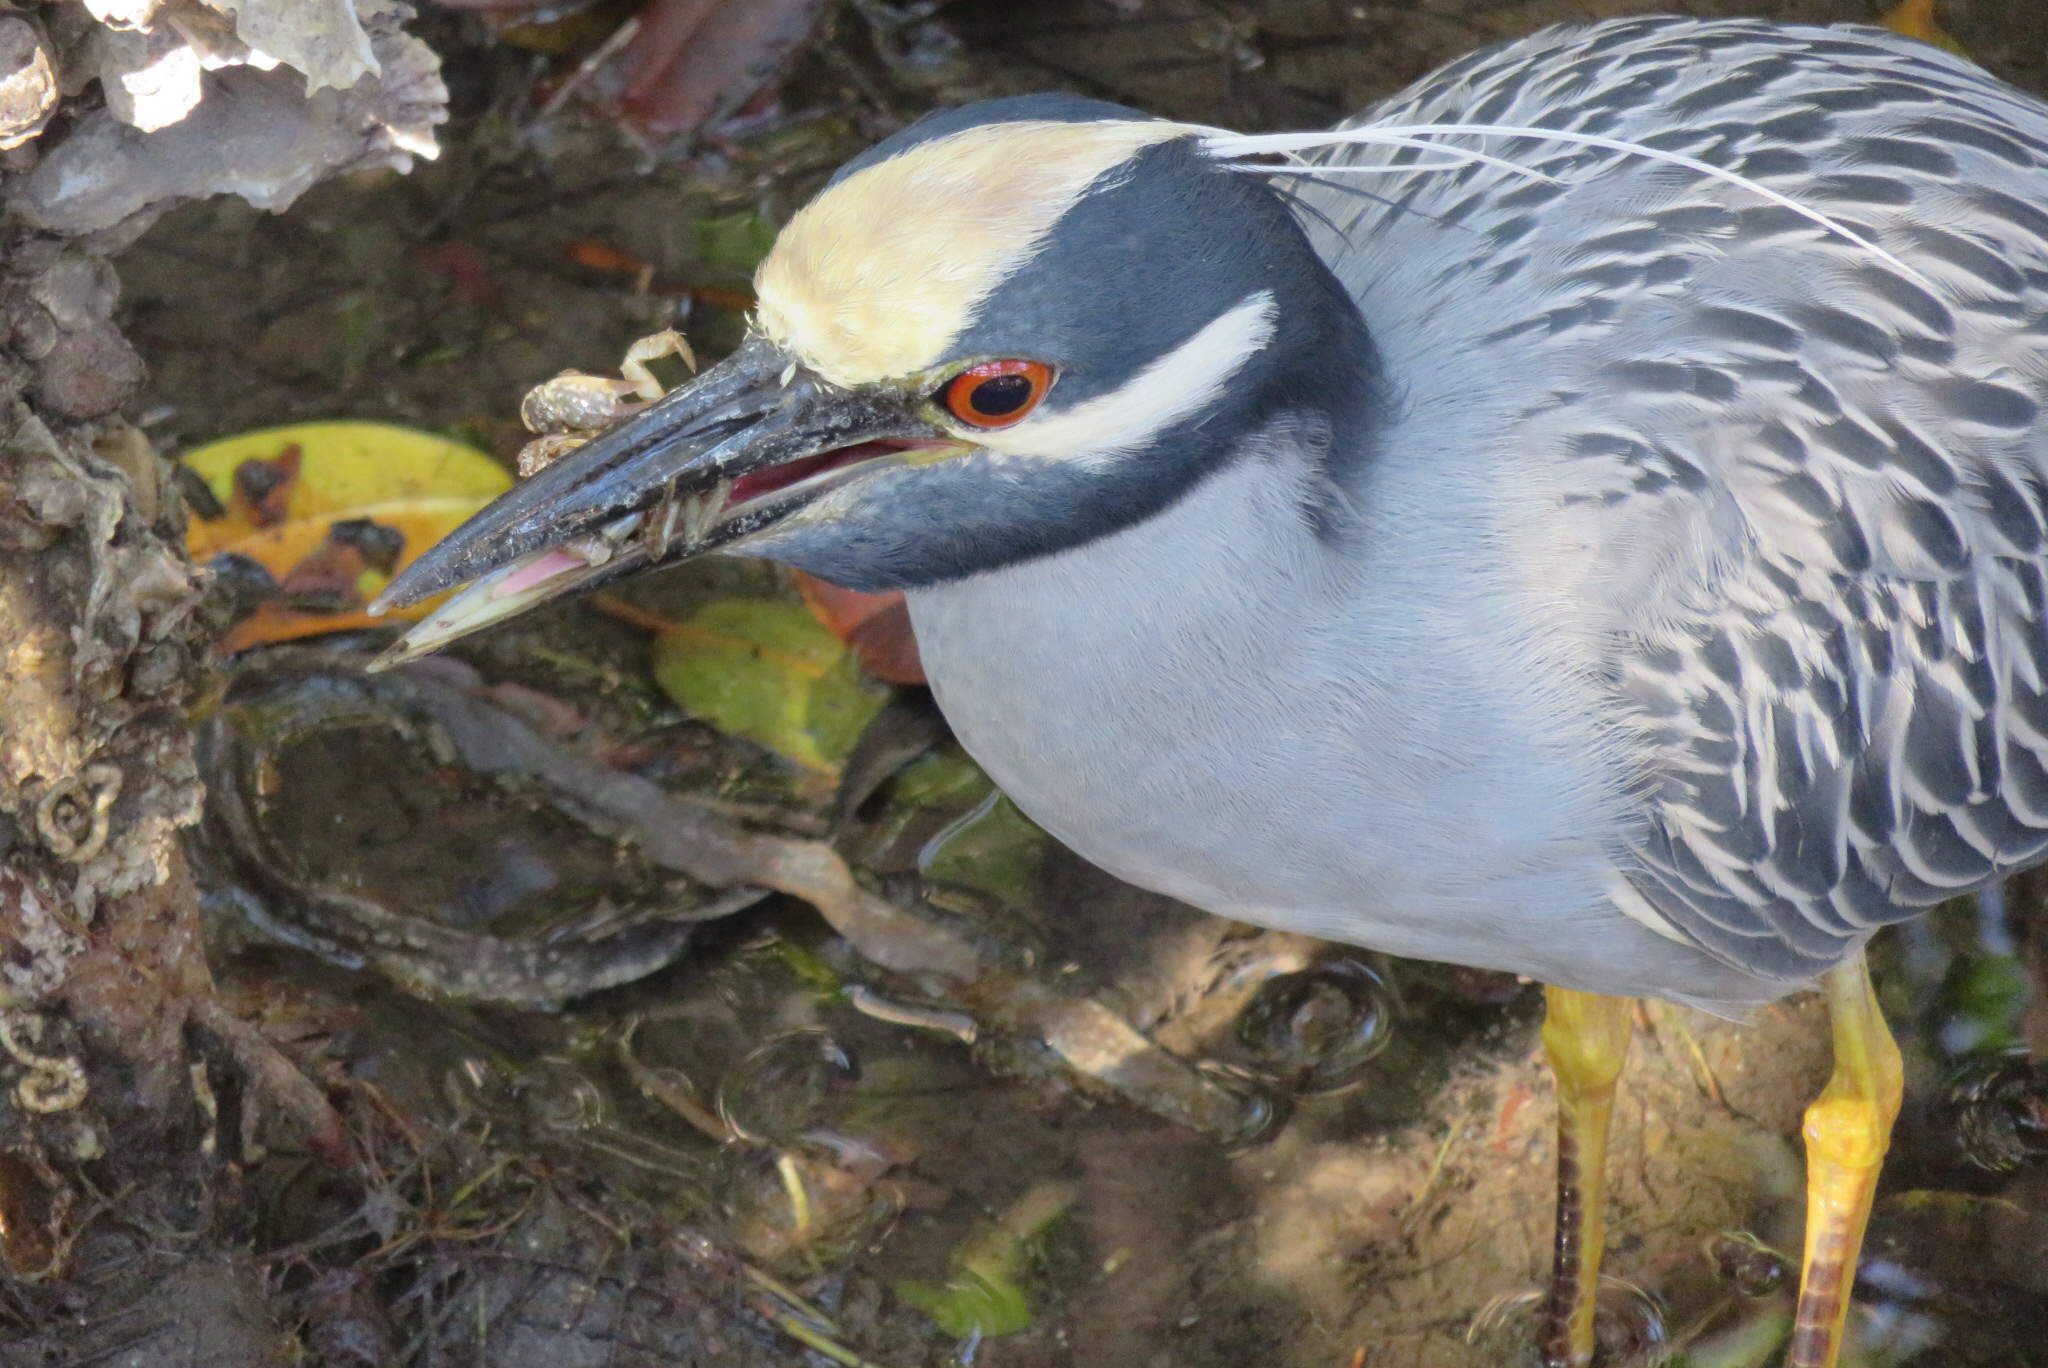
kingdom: Animalia
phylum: Chordata
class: Aves
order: Pelecaniformes
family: Ardeidae
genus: Nyctanassa
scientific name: Nyctanassa violacea
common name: Yellow-crowned night heron
